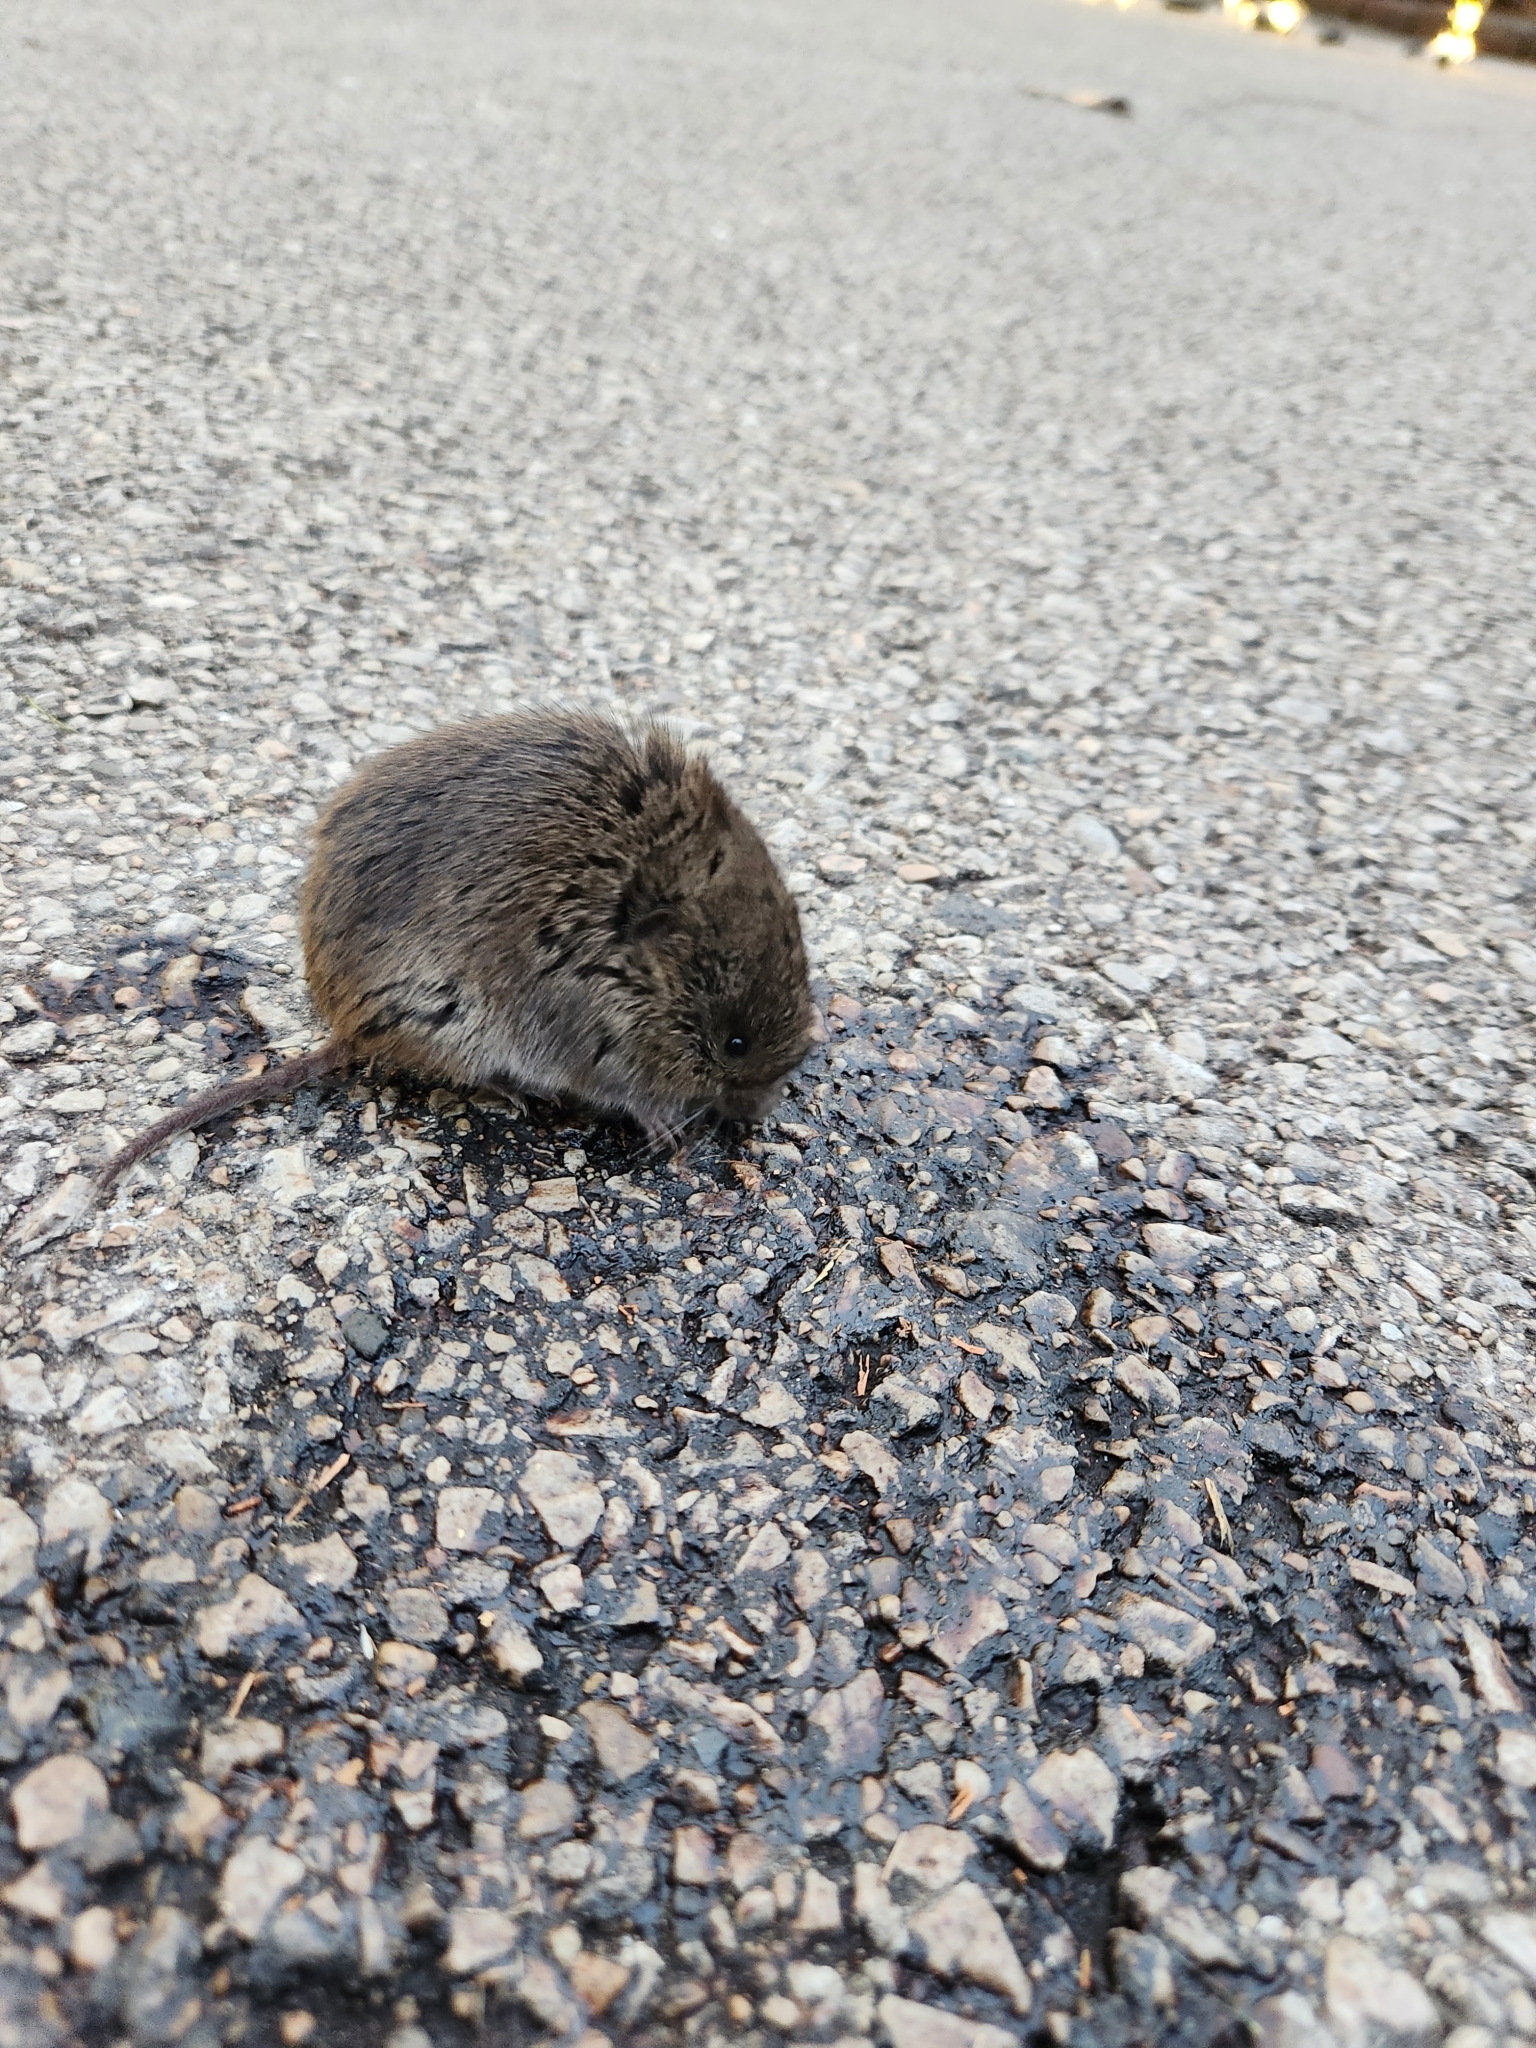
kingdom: Animalia
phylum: Chordata
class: Mammalia
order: Rodentia
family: Cricetidae
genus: Microtus
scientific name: Microtus pennsylvanicus
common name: Meadow vole
